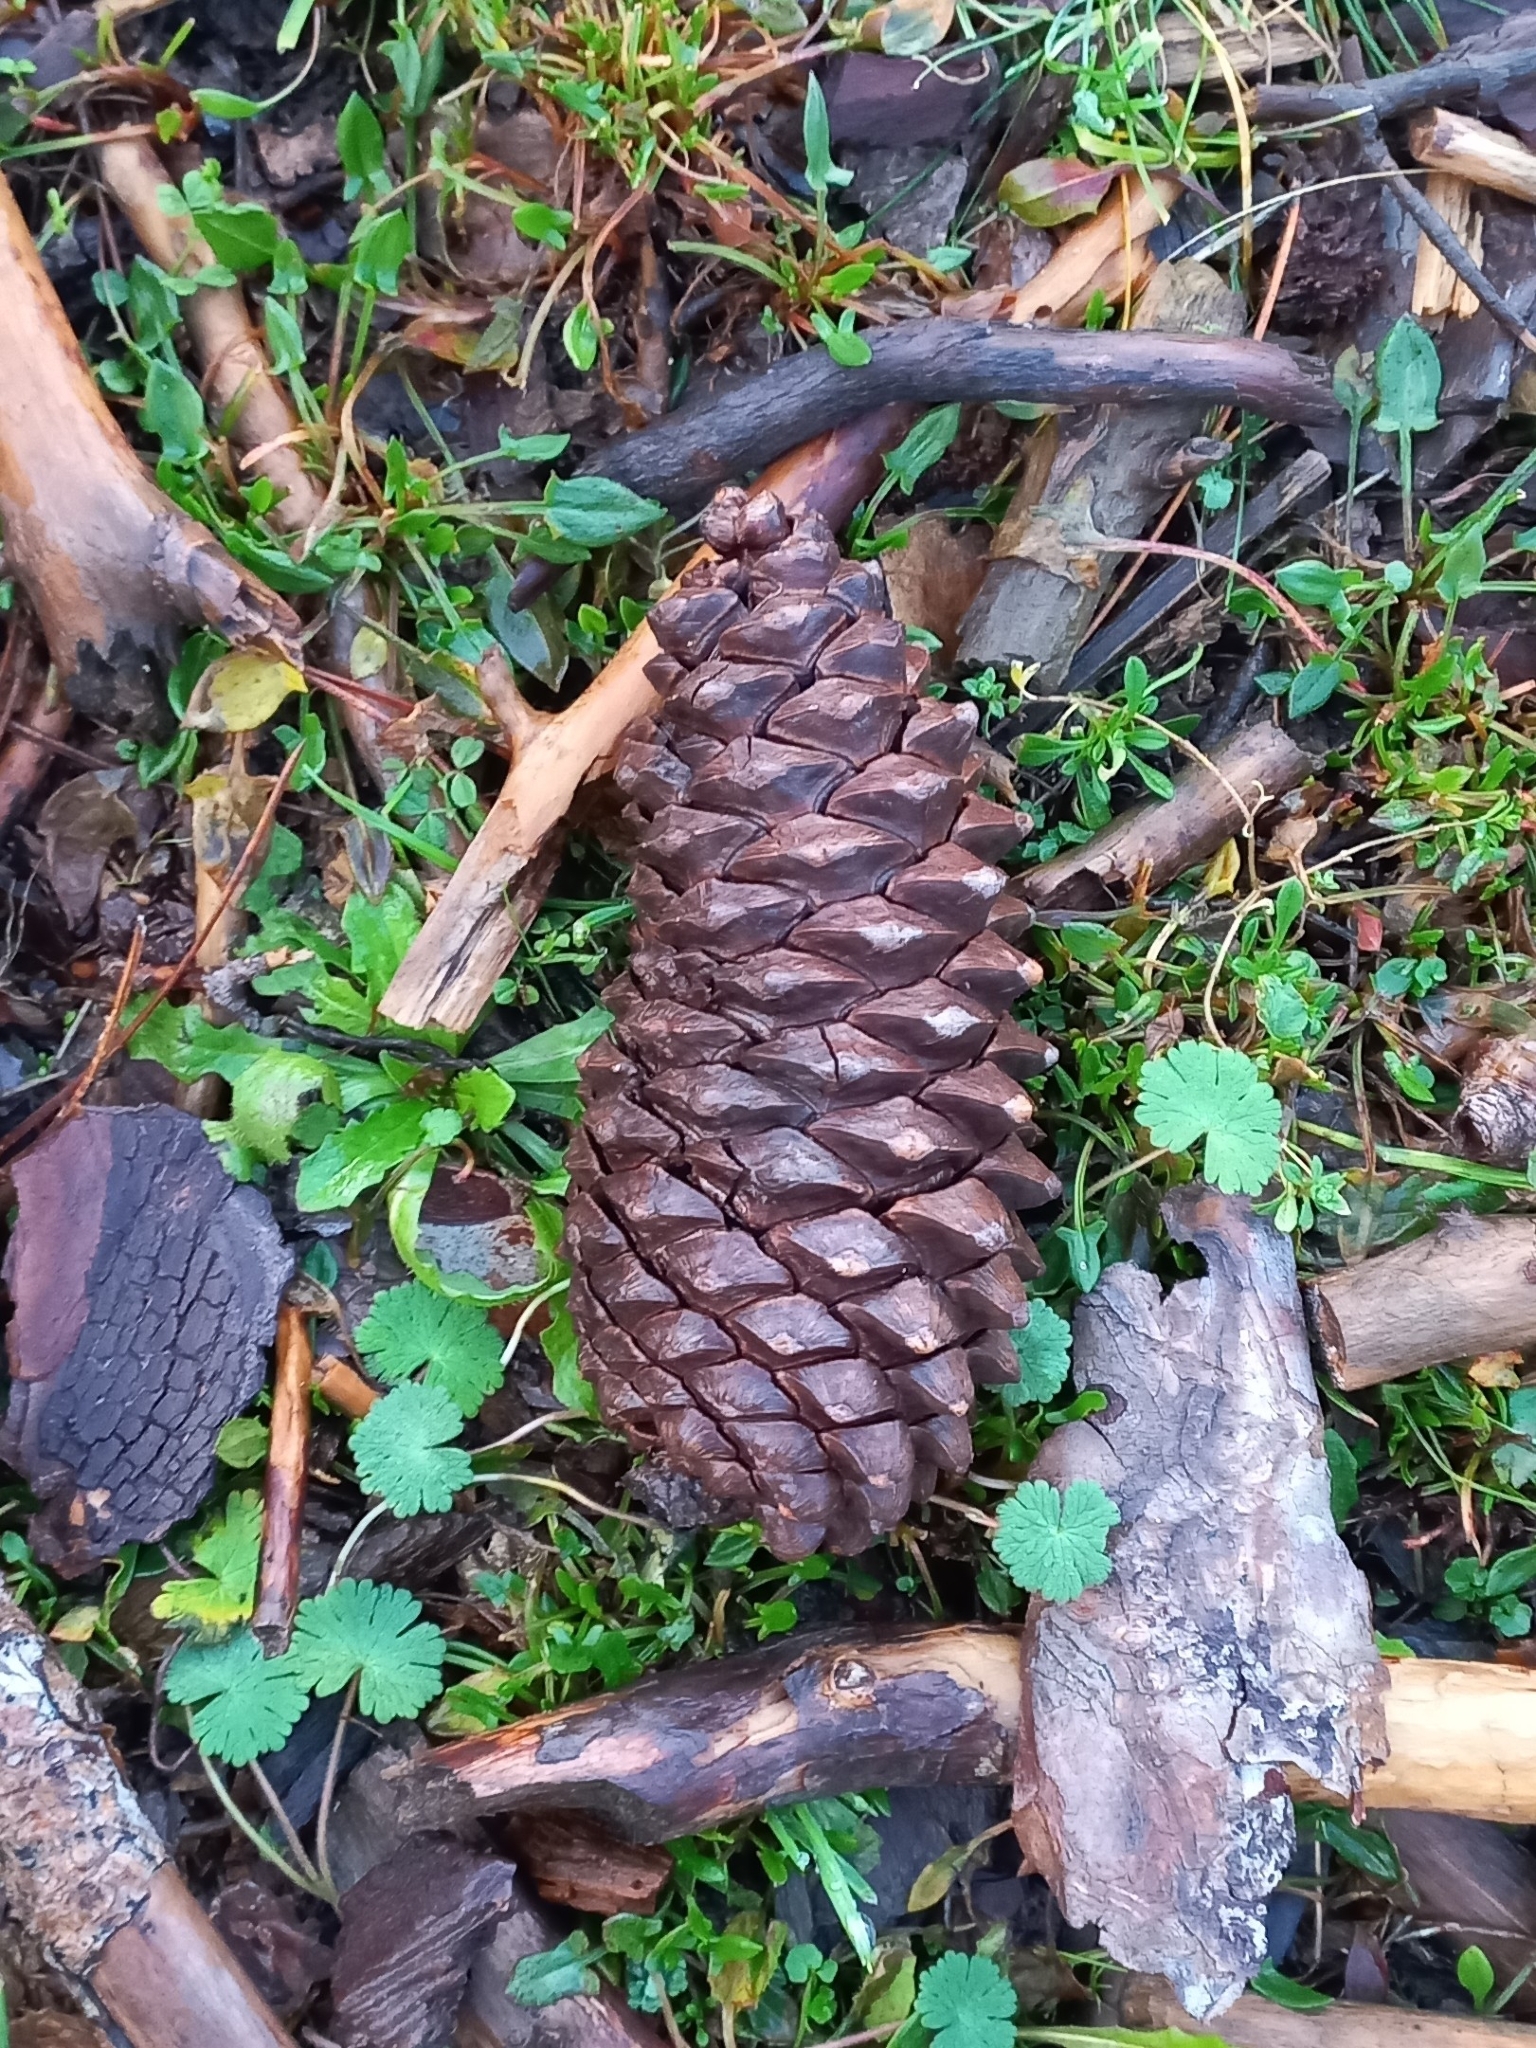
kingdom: Plantae
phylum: Tracheophyta
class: Pinopsida
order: Pinales
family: Pinaceae
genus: Pinus
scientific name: Pinus pinaster
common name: Maritime pine
